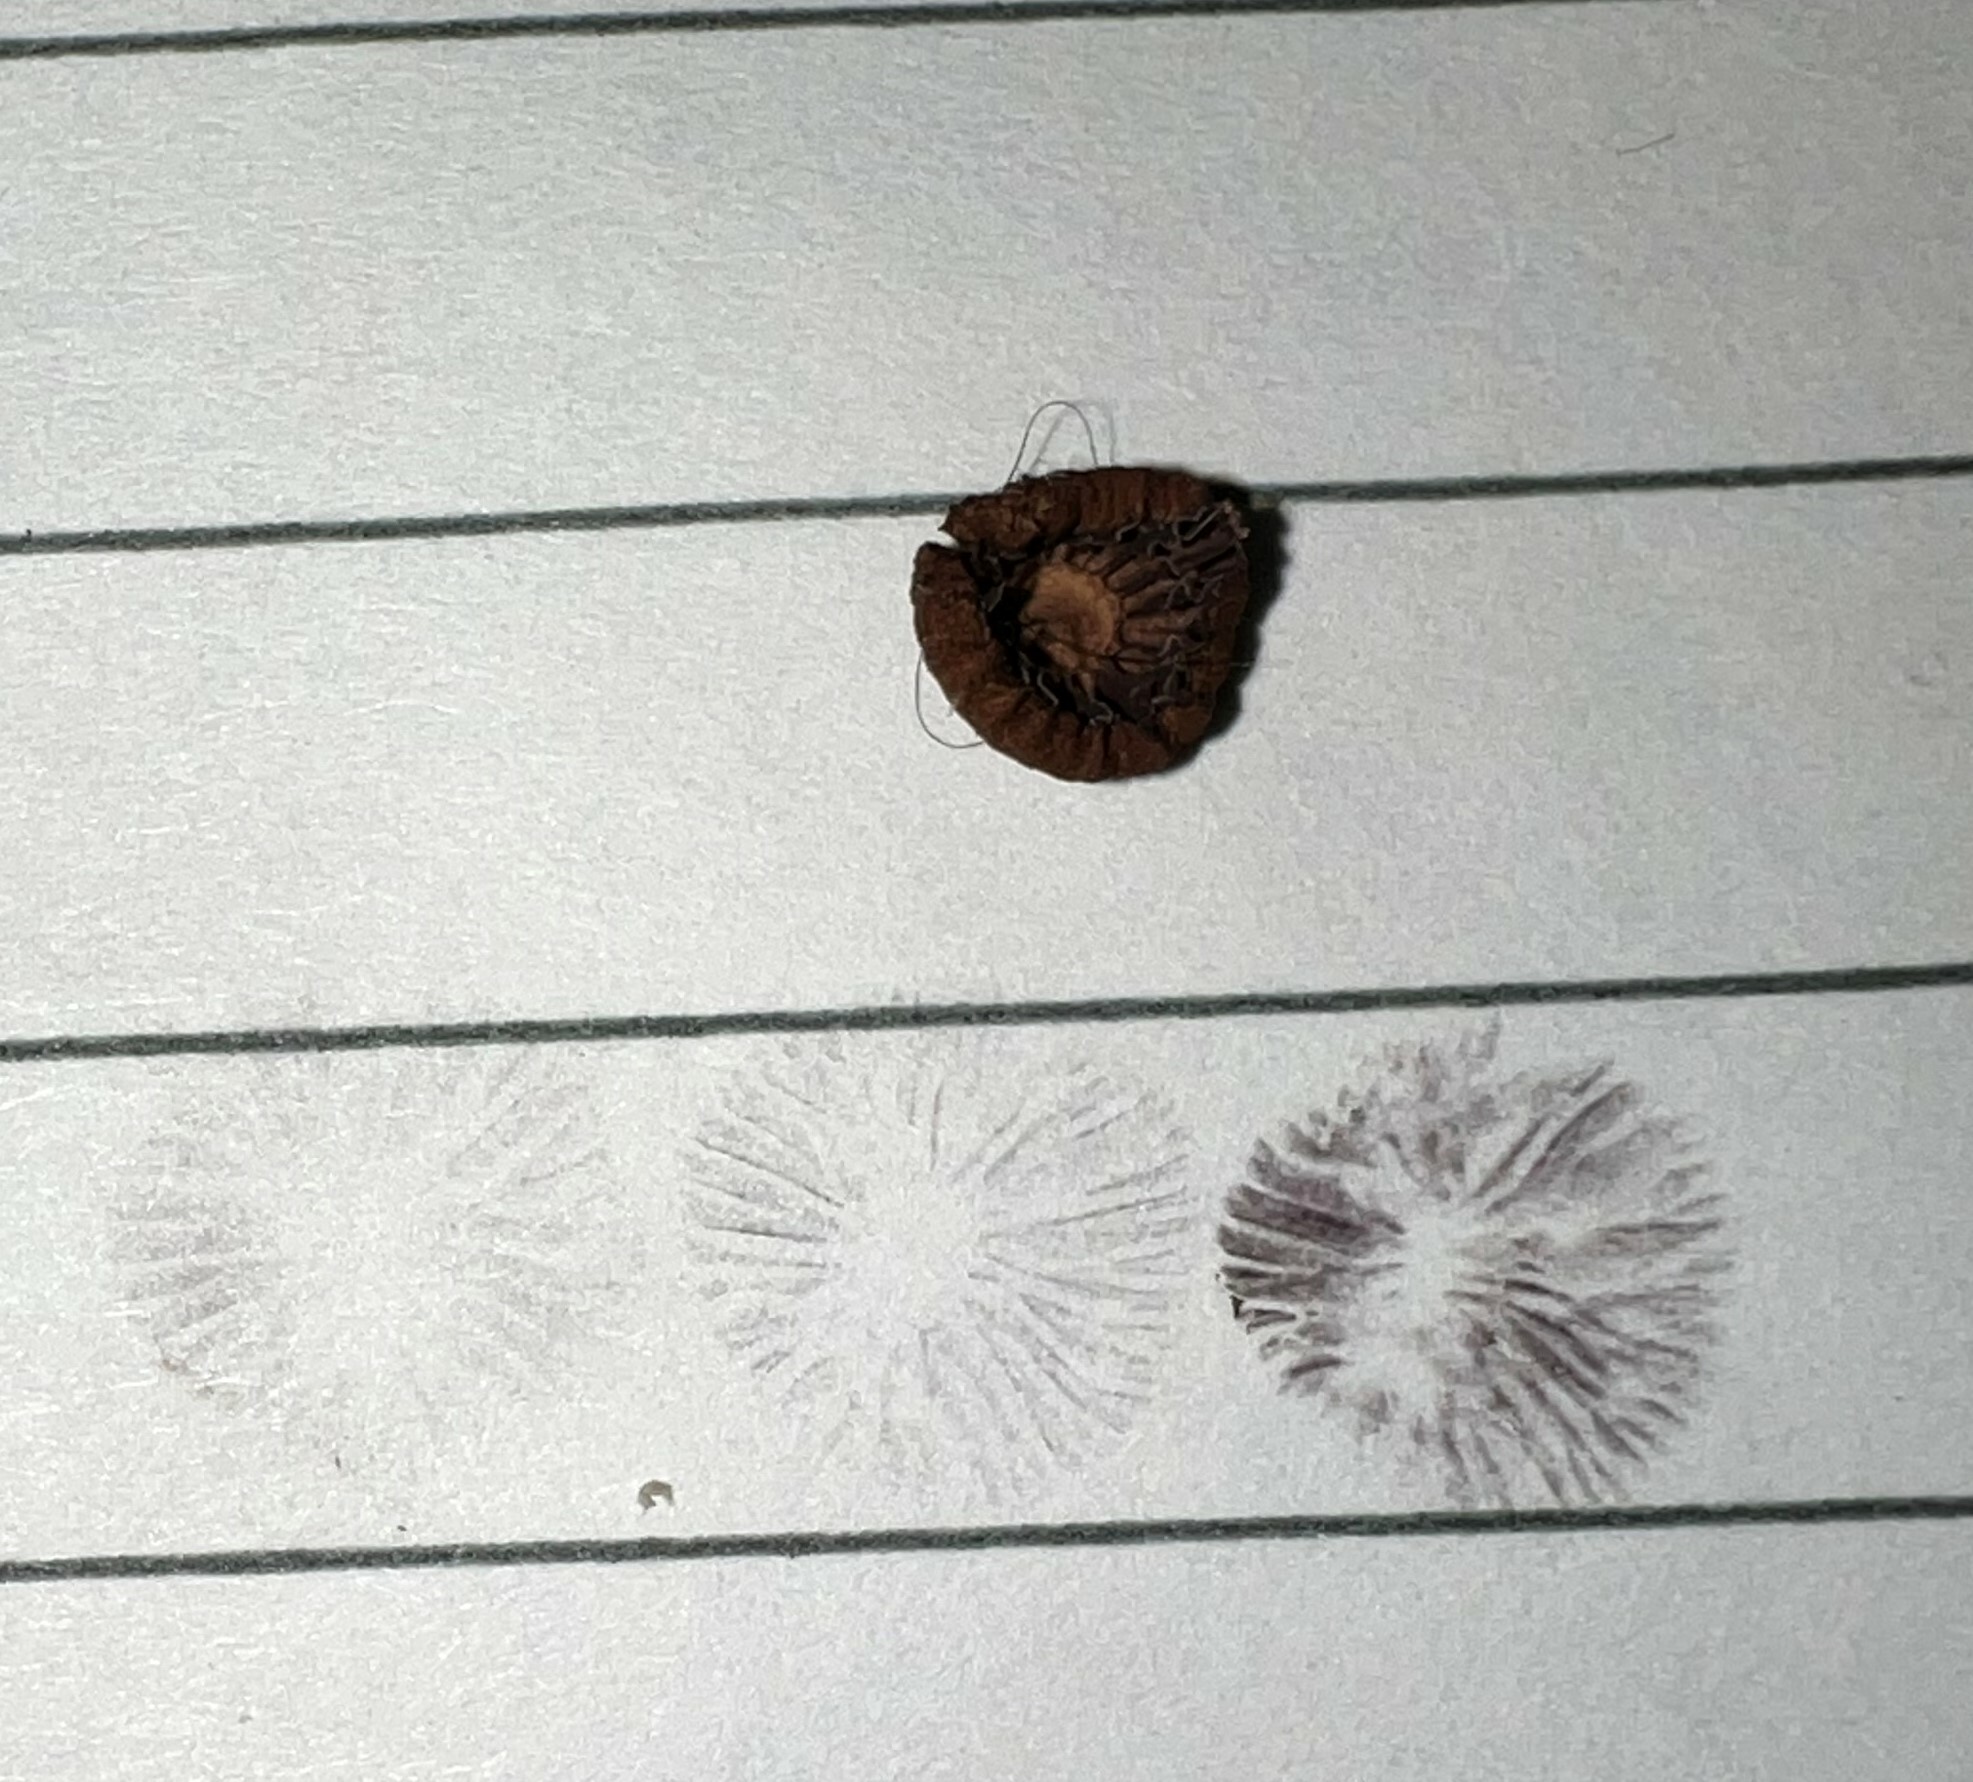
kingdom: Fungi
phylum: Basidiomycota
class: Agaricomycetes
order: Agaricales
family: Strophariaceae
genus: Deconica
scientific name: Deconica montana
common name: Mountain moss deconica
